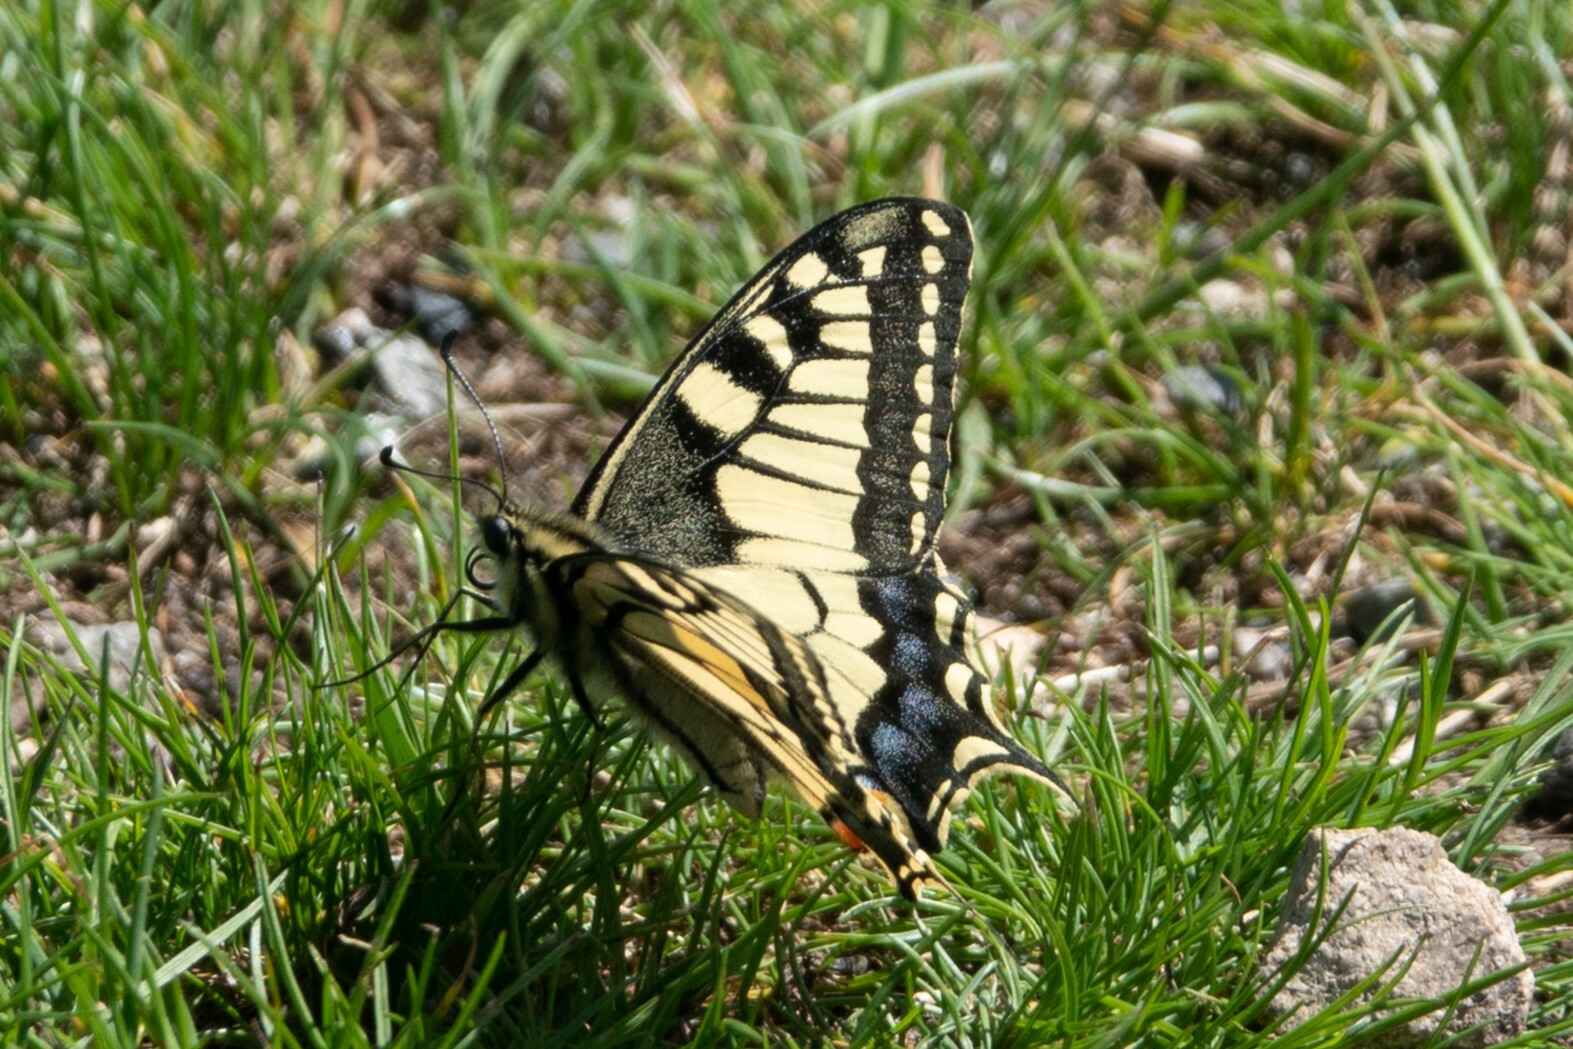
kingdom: Animalia
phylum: Arthropoda
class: Insecta
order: Lepidoptera
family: Papilionidae
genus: Papilio
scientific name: Papilio machaon
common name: Swallowtail
